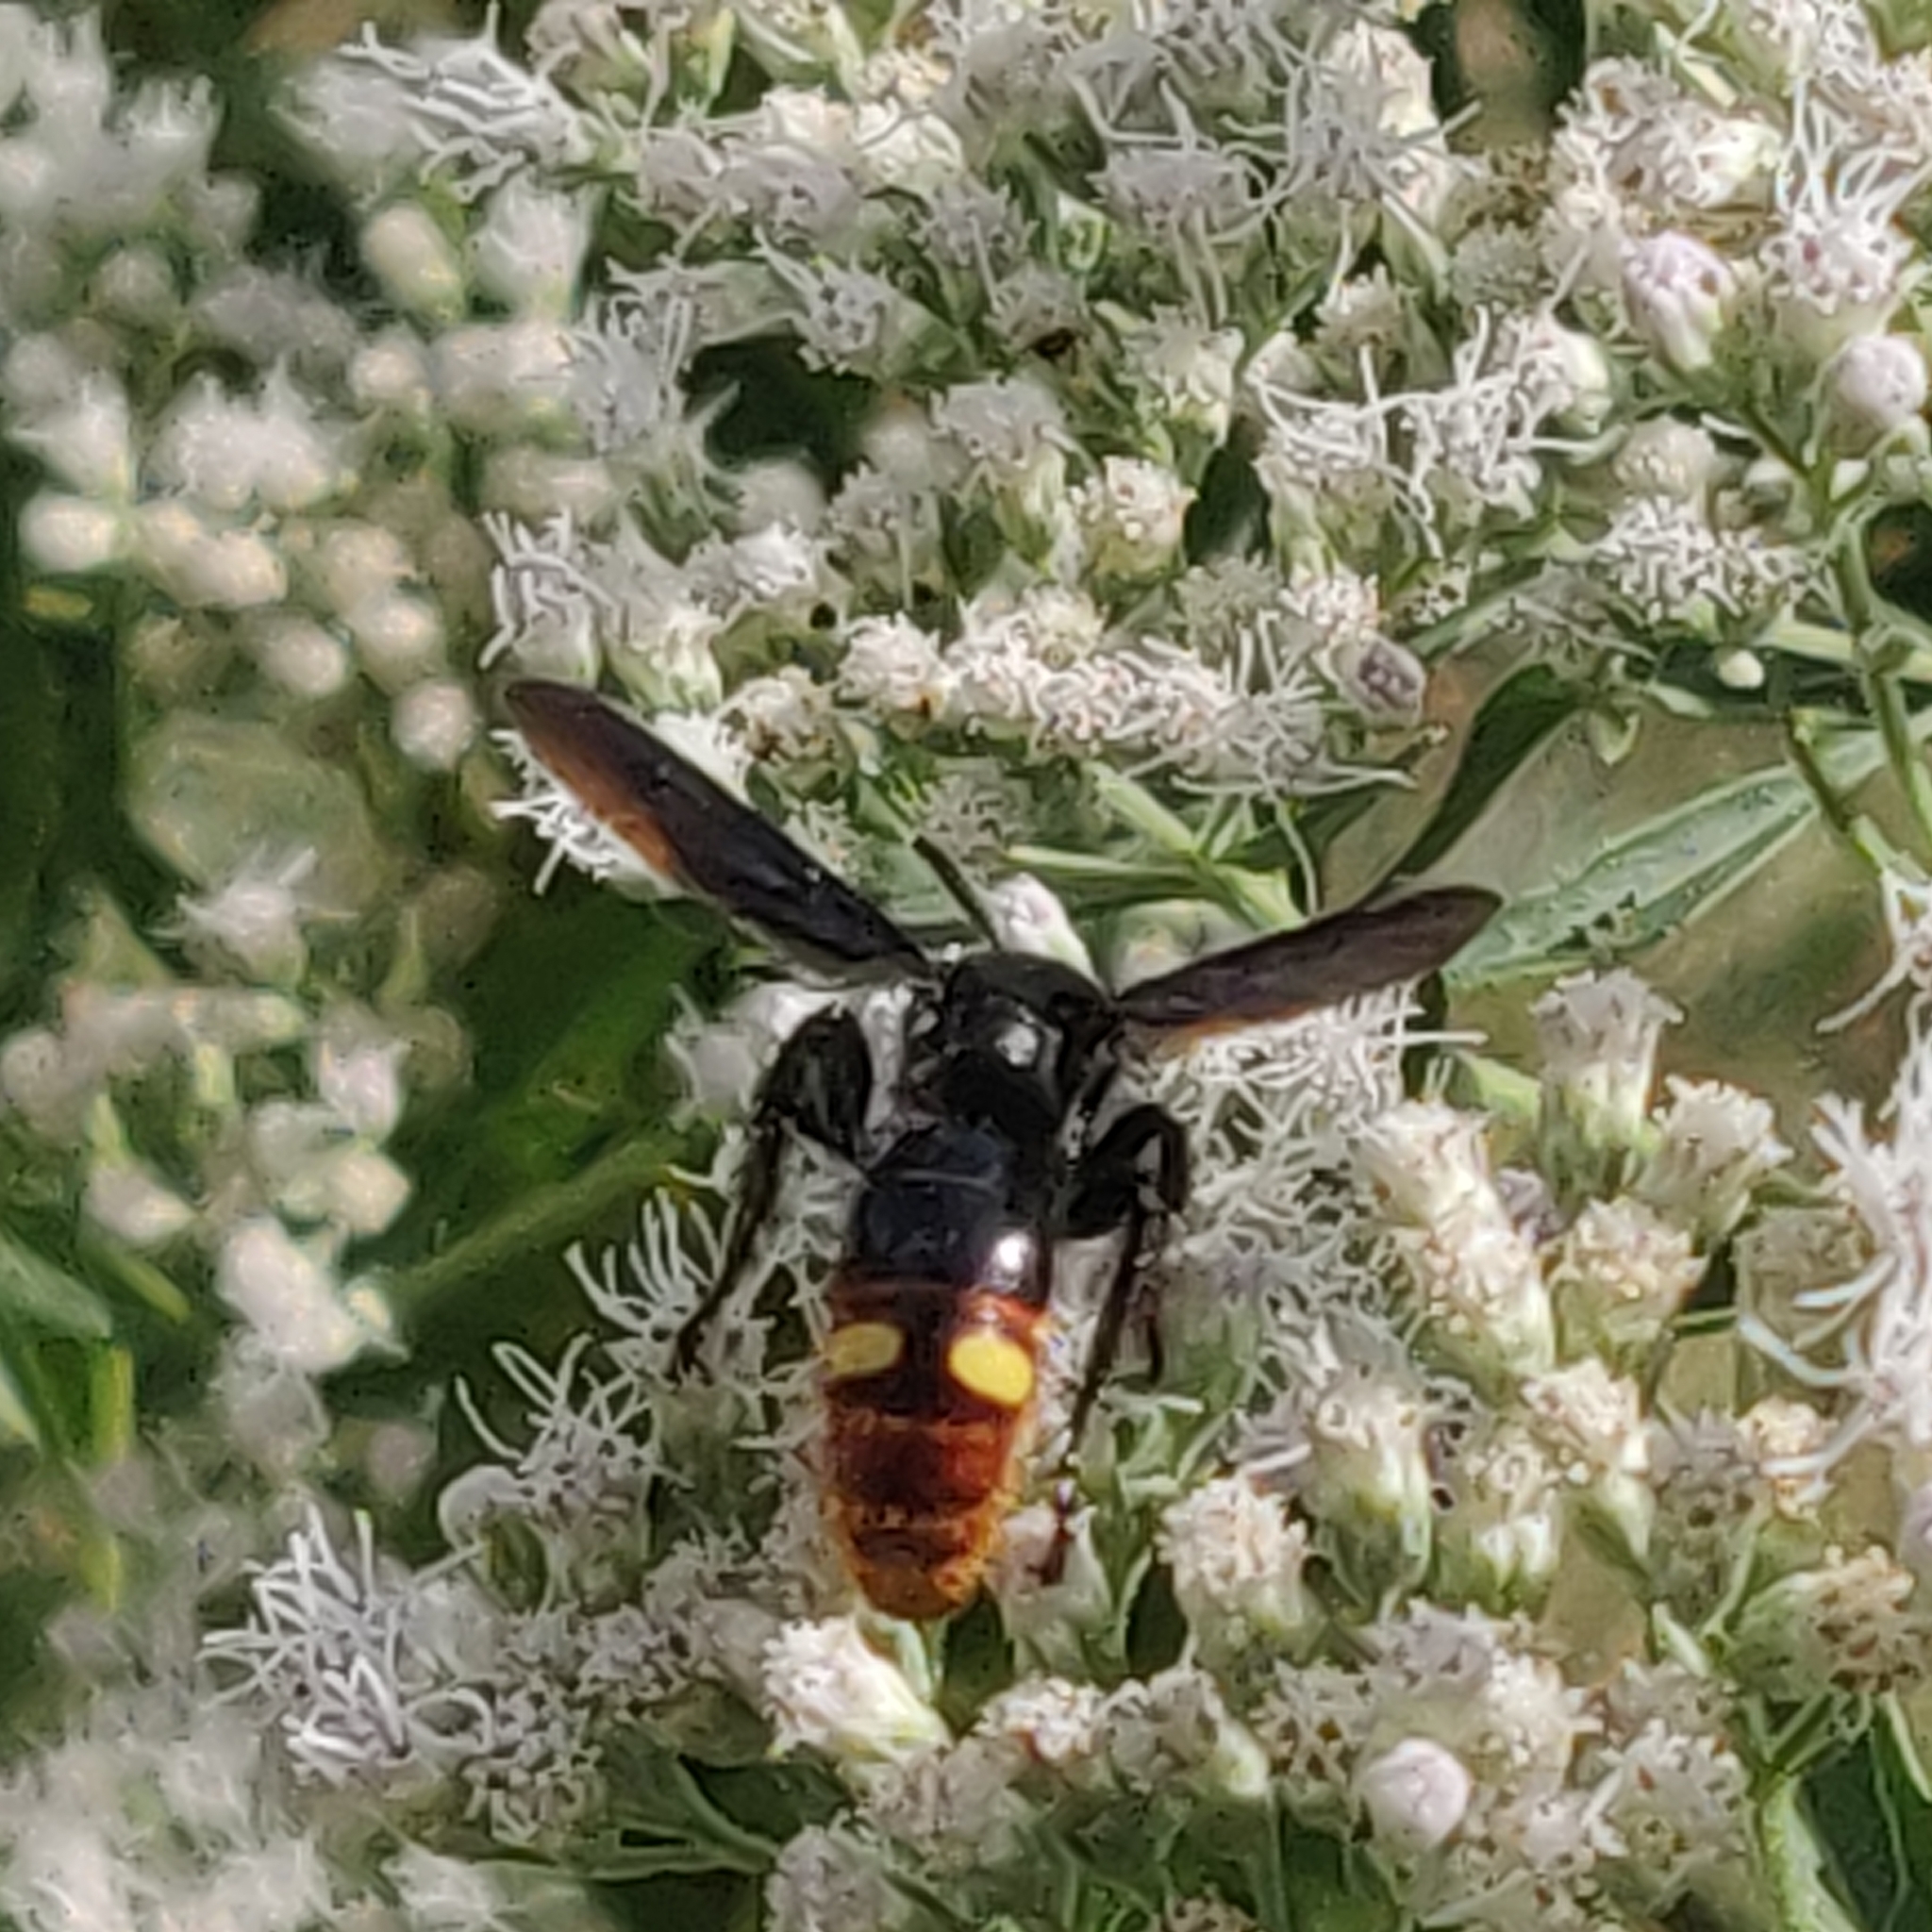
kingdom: Animalia
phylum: Arthropoda
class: Insecta
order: Hymenoptera
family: Scoliidae
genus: Scolia
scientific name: Scolia dubia
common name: Blue-winged scoliid wasp
